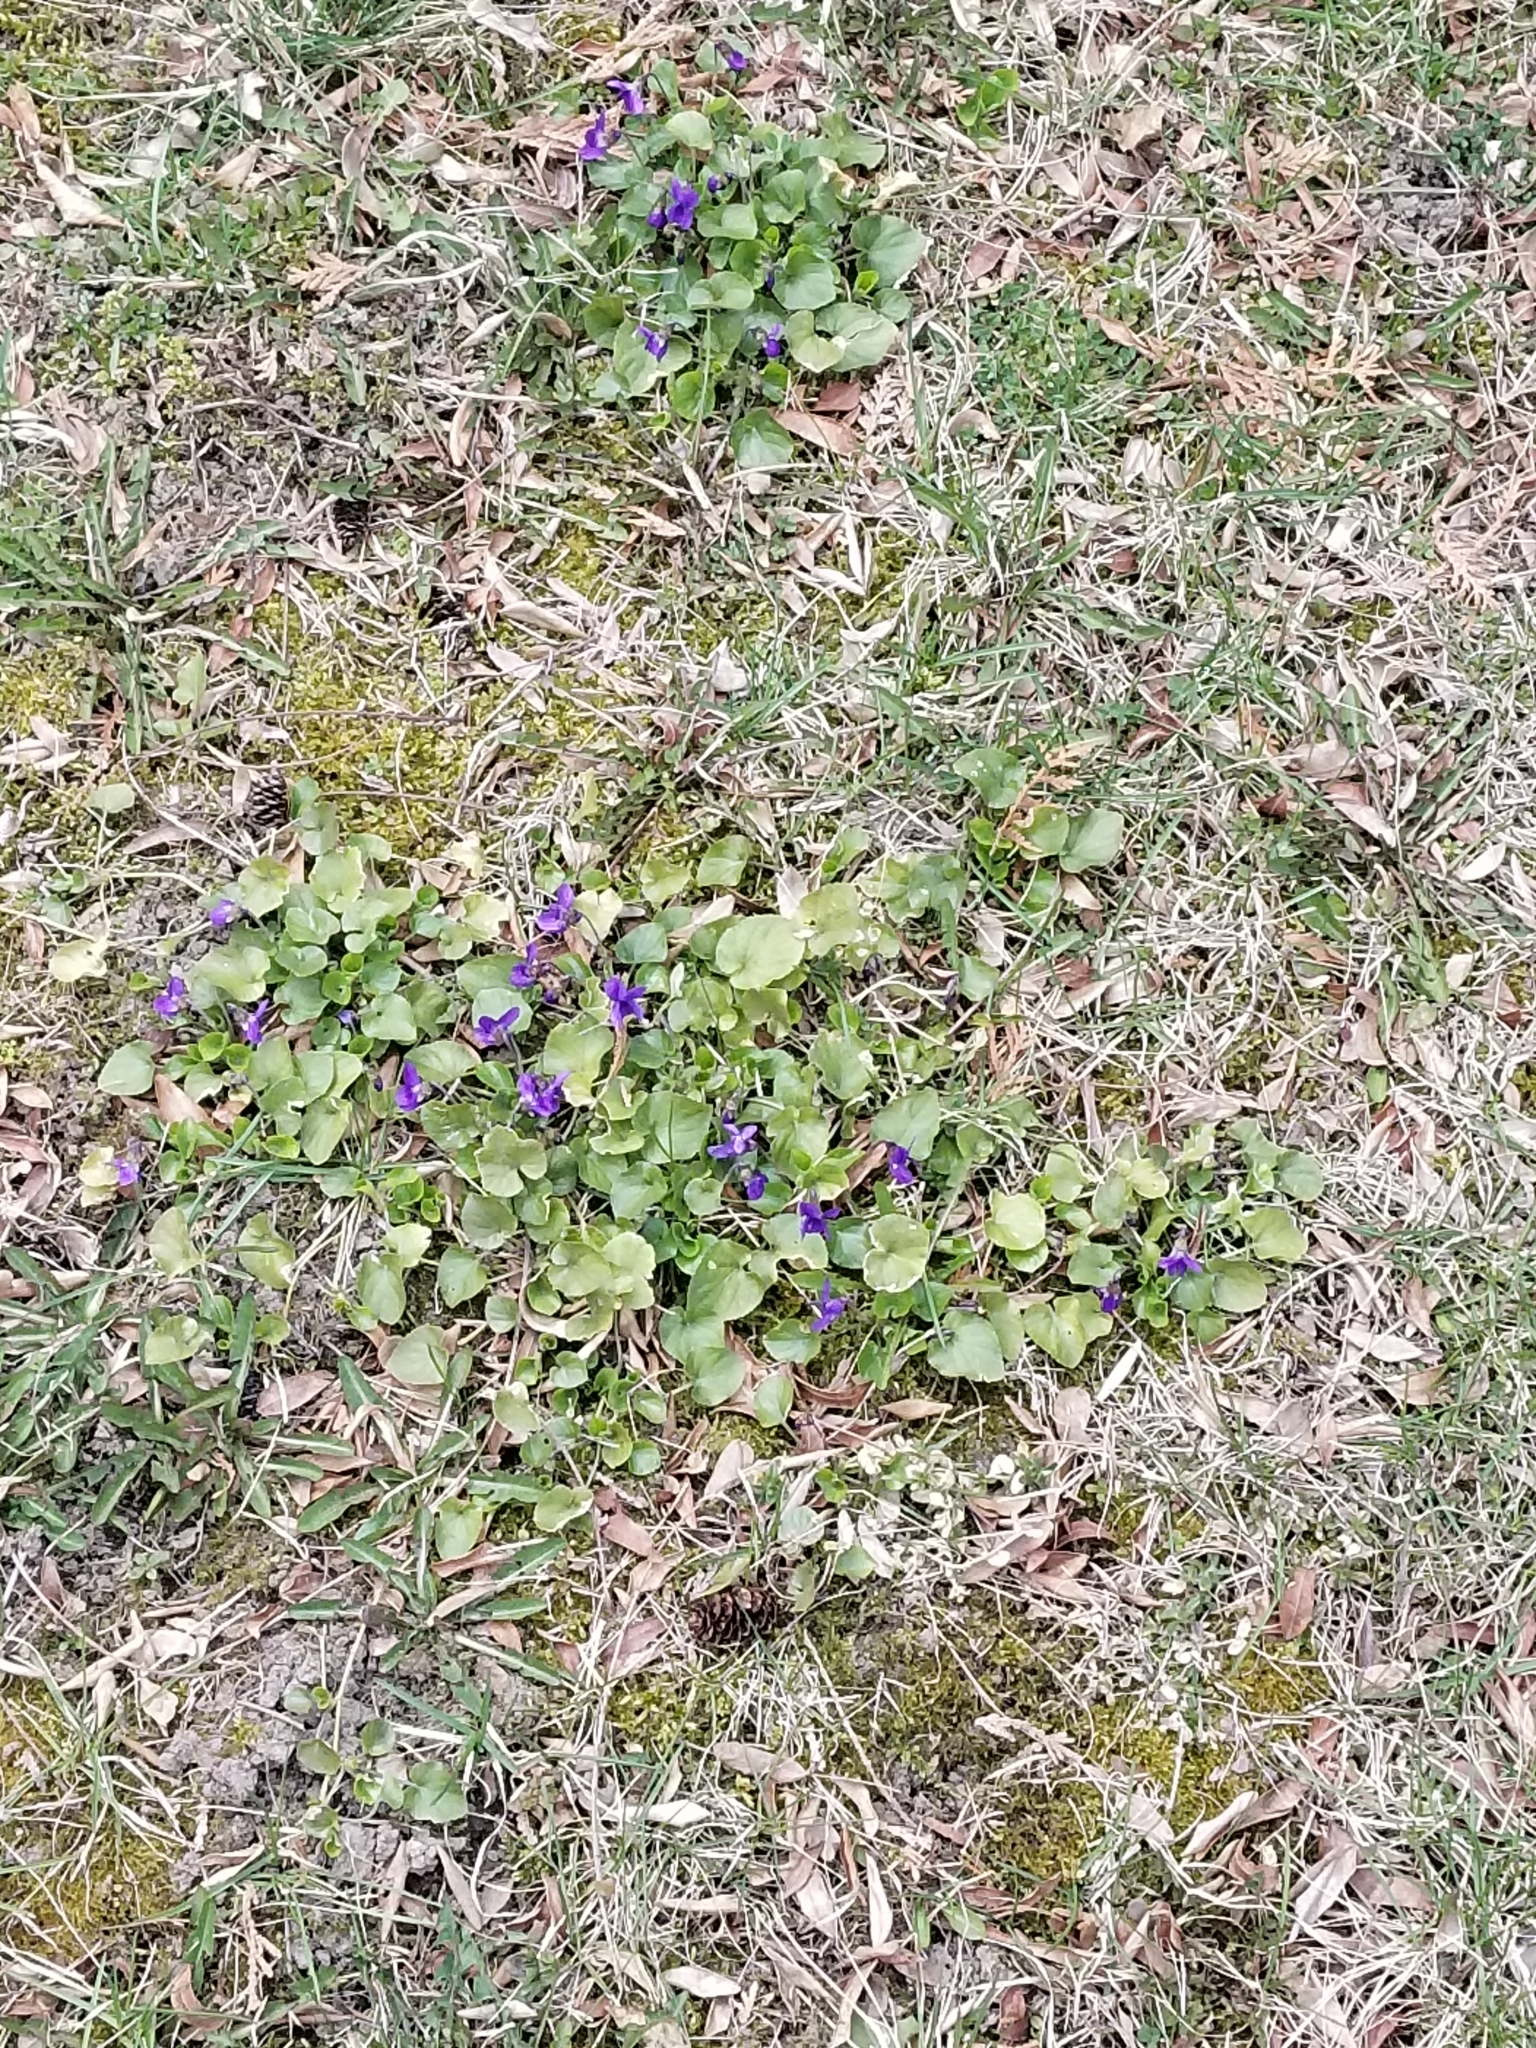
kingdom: Plantae
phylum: Tracheophyta
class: Magnoliopsida
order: Malpighiales
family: Violaceae
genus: Viola
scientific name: Viola odorata
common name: Sweet violet
